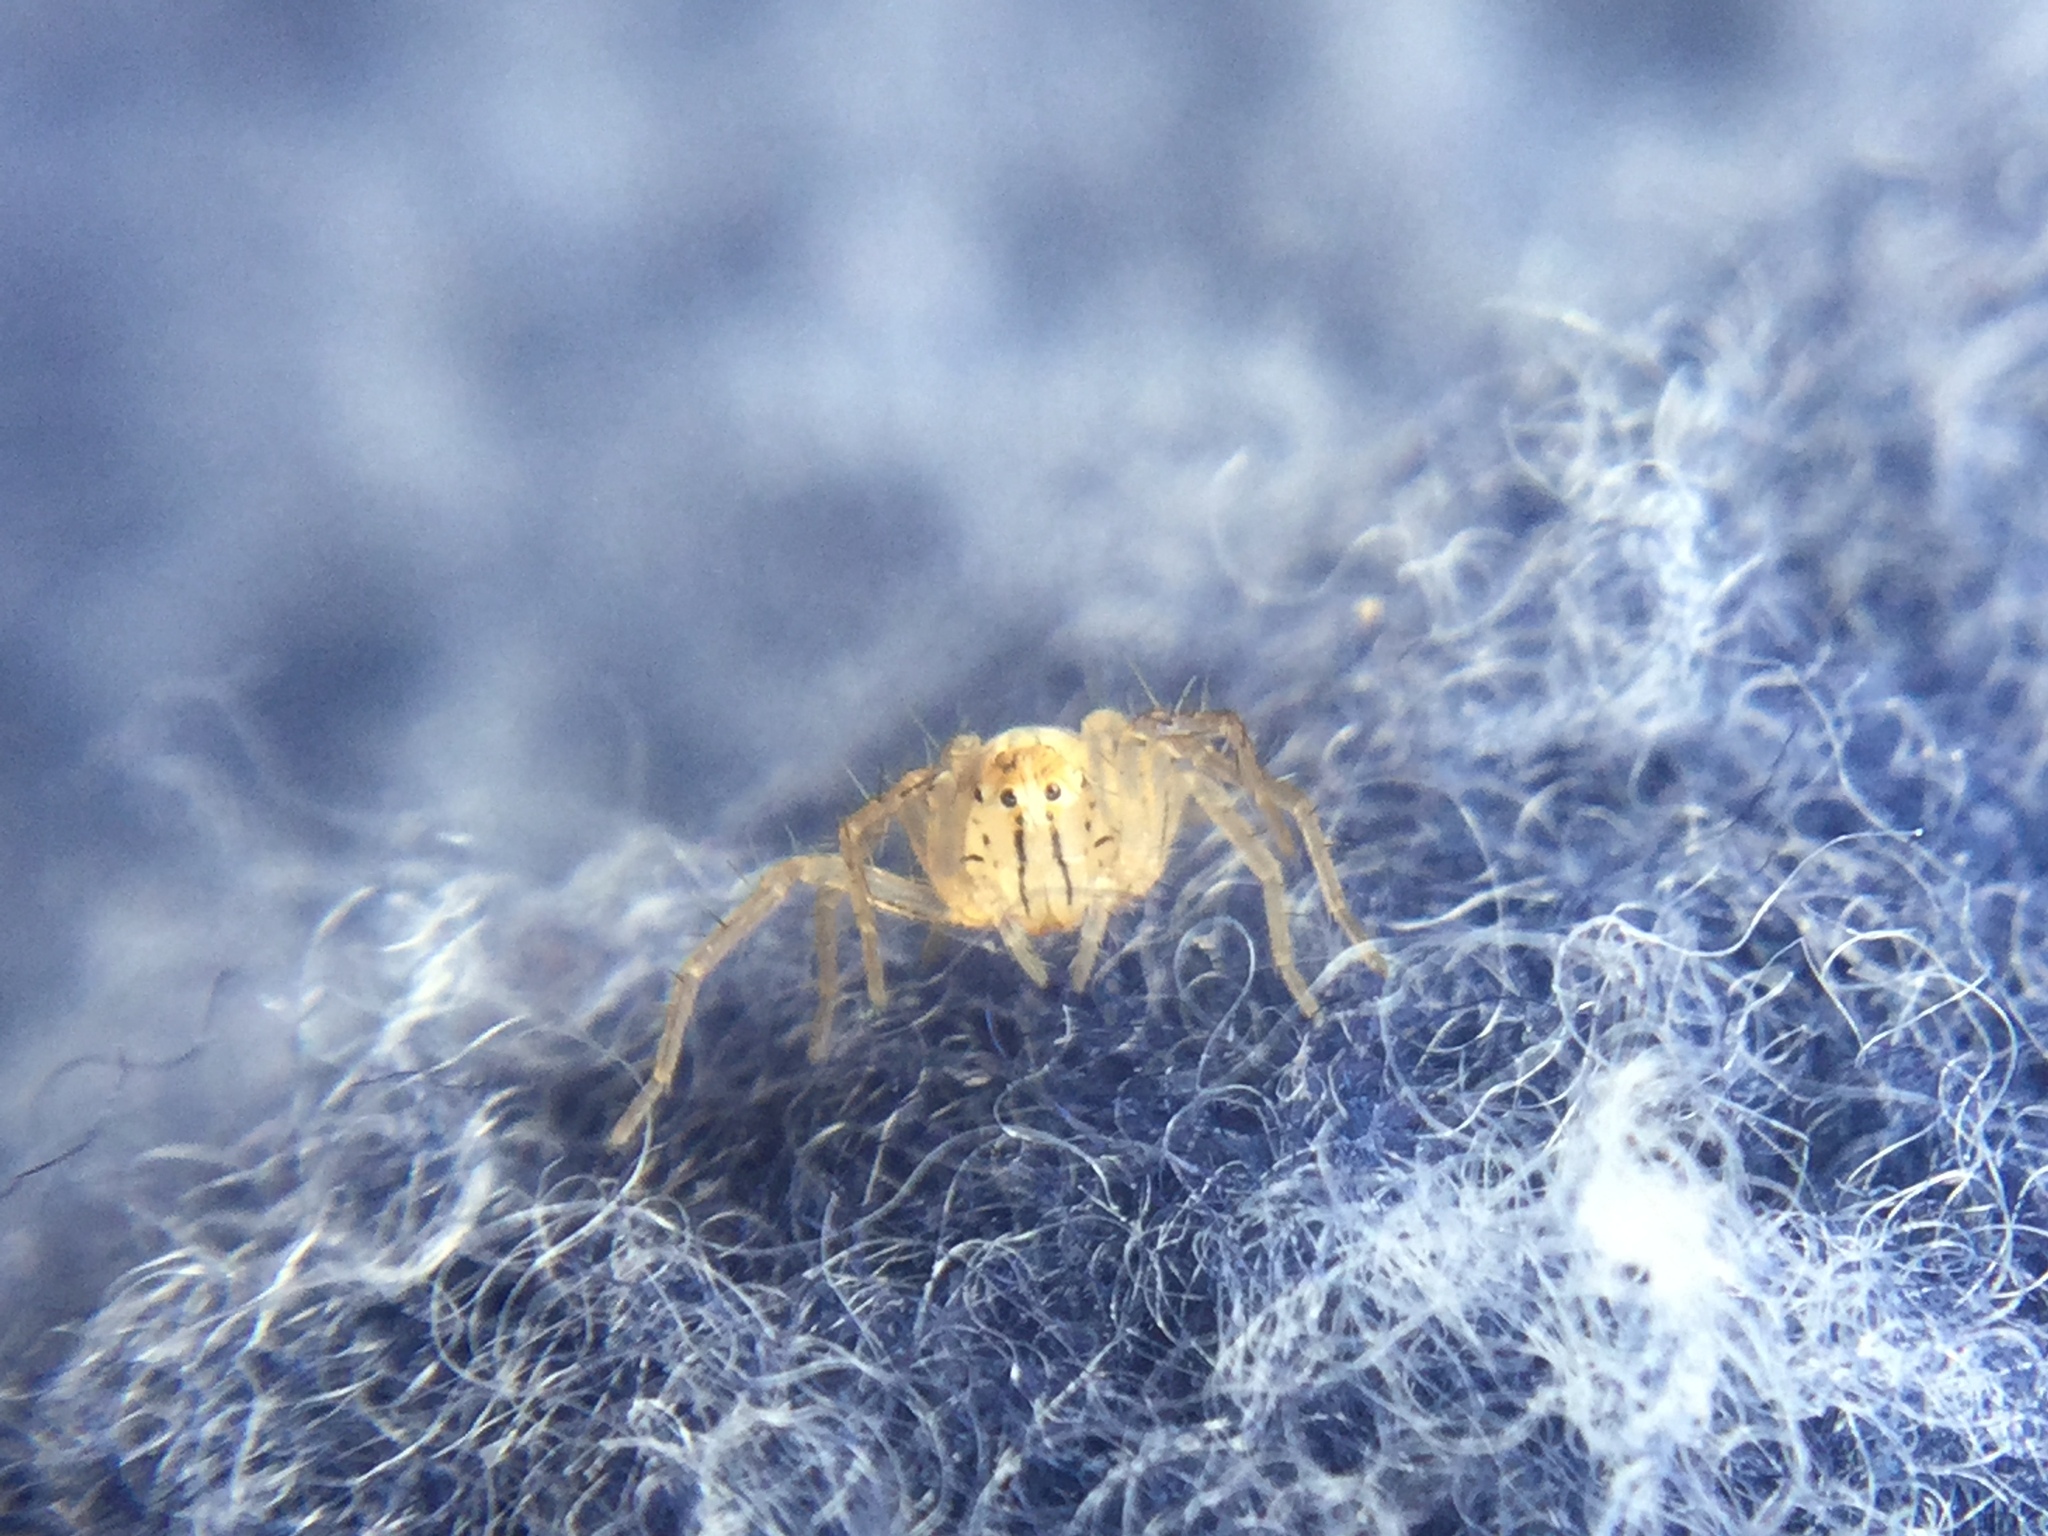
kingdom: Animalia
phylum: Arthropoda
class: Arachnida
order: Araneae
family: Oxyopidae
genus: Oxyopes
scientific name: Oxyopes salticus
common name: Lynx spiders
